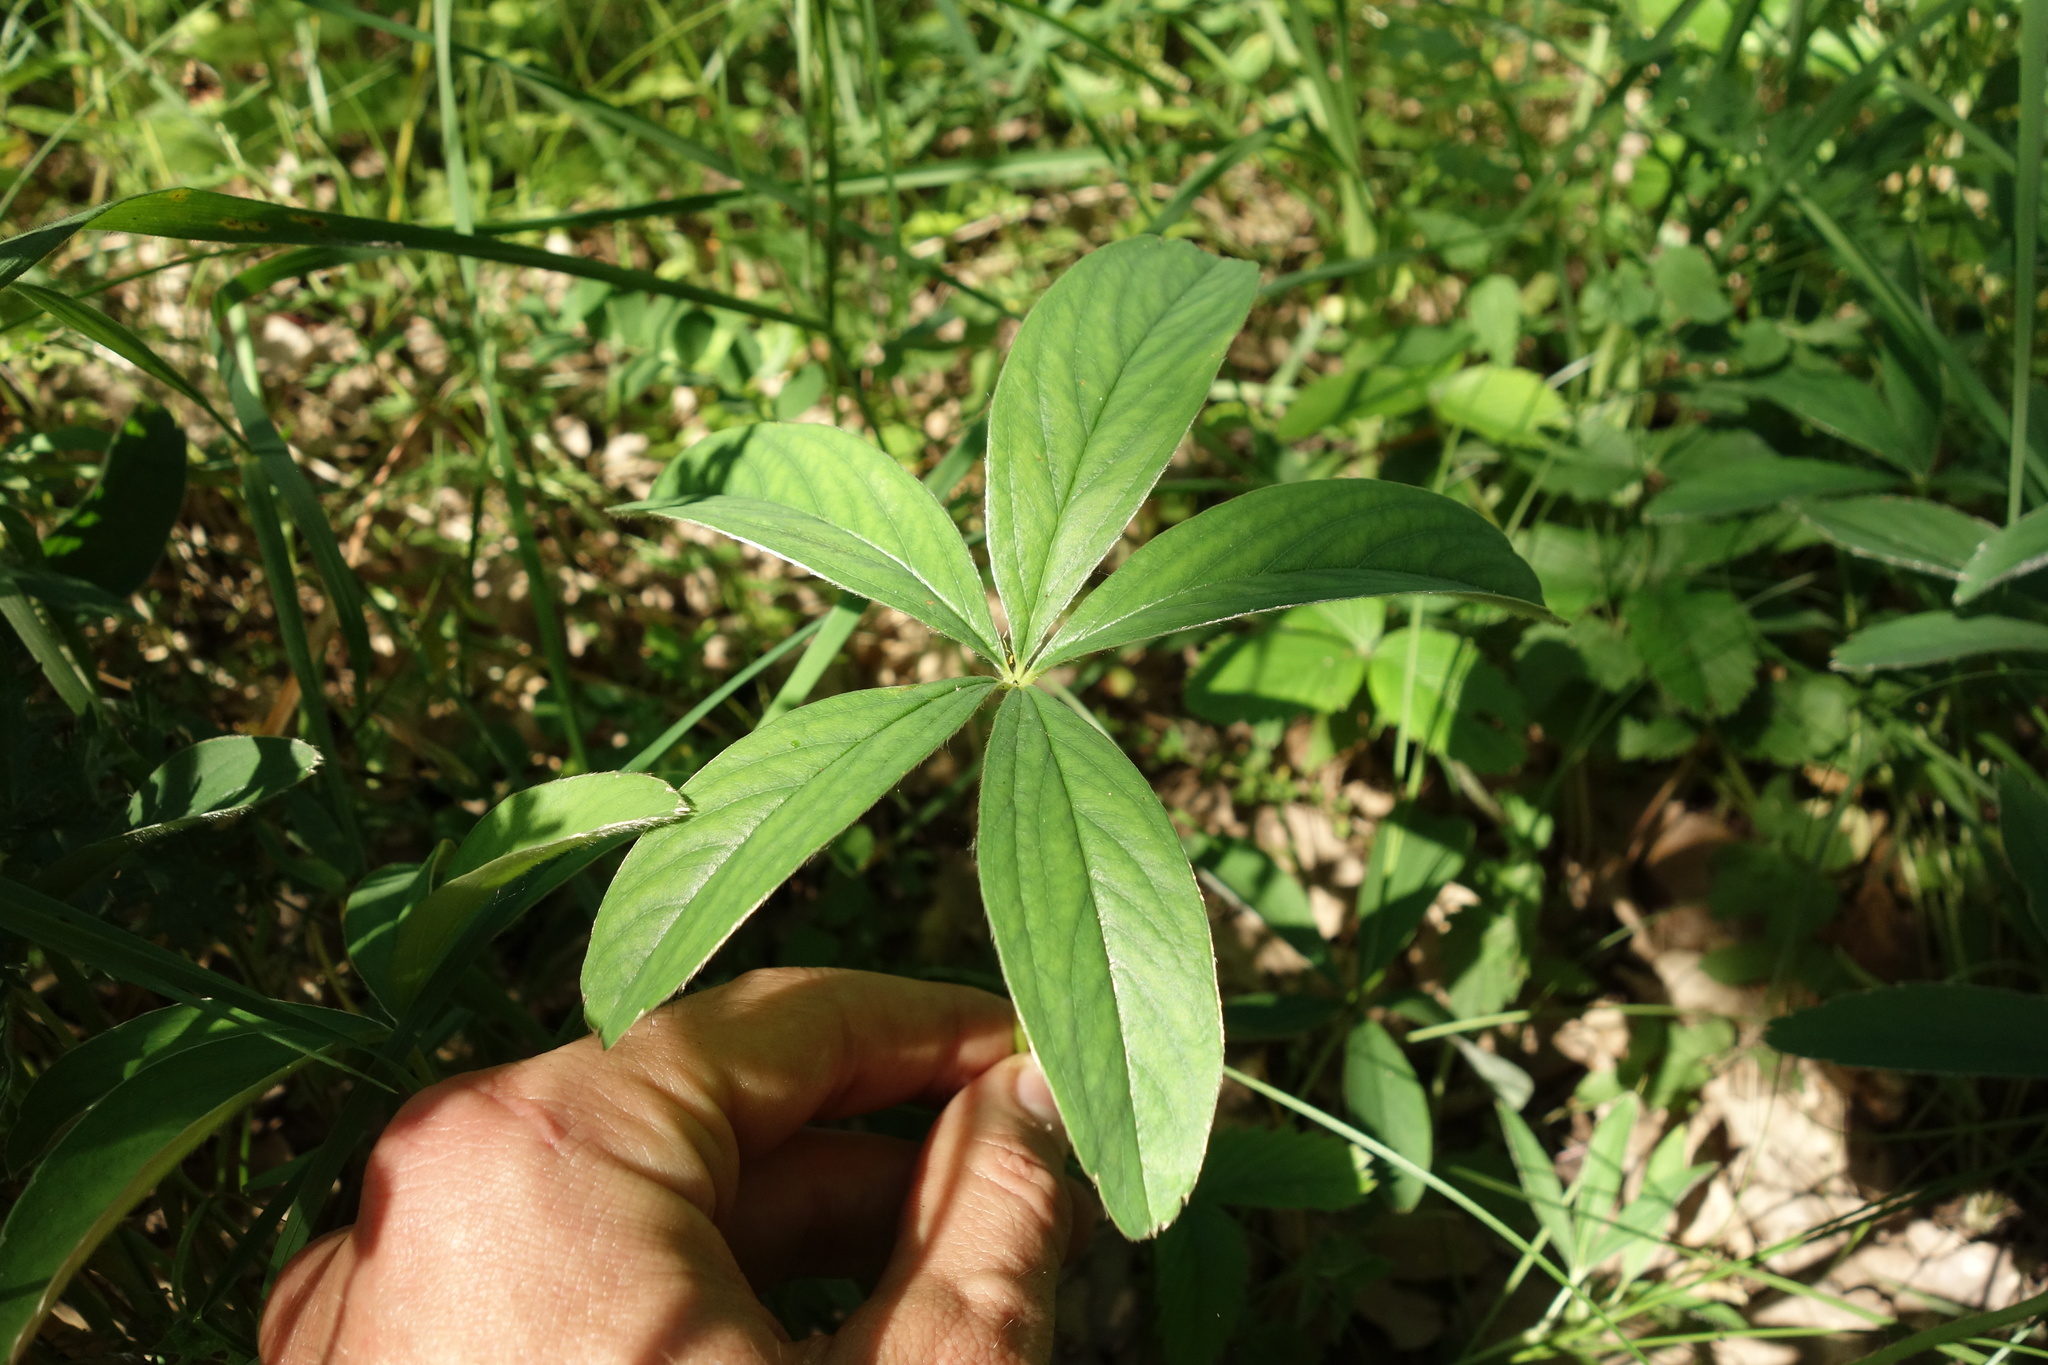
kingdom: Plantae
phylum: Tracheophyta
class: Magnoliopsida
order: Rosales
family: Rosaceae
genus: Potentilla
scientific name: Potentilla alba
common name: White cinquefoil
